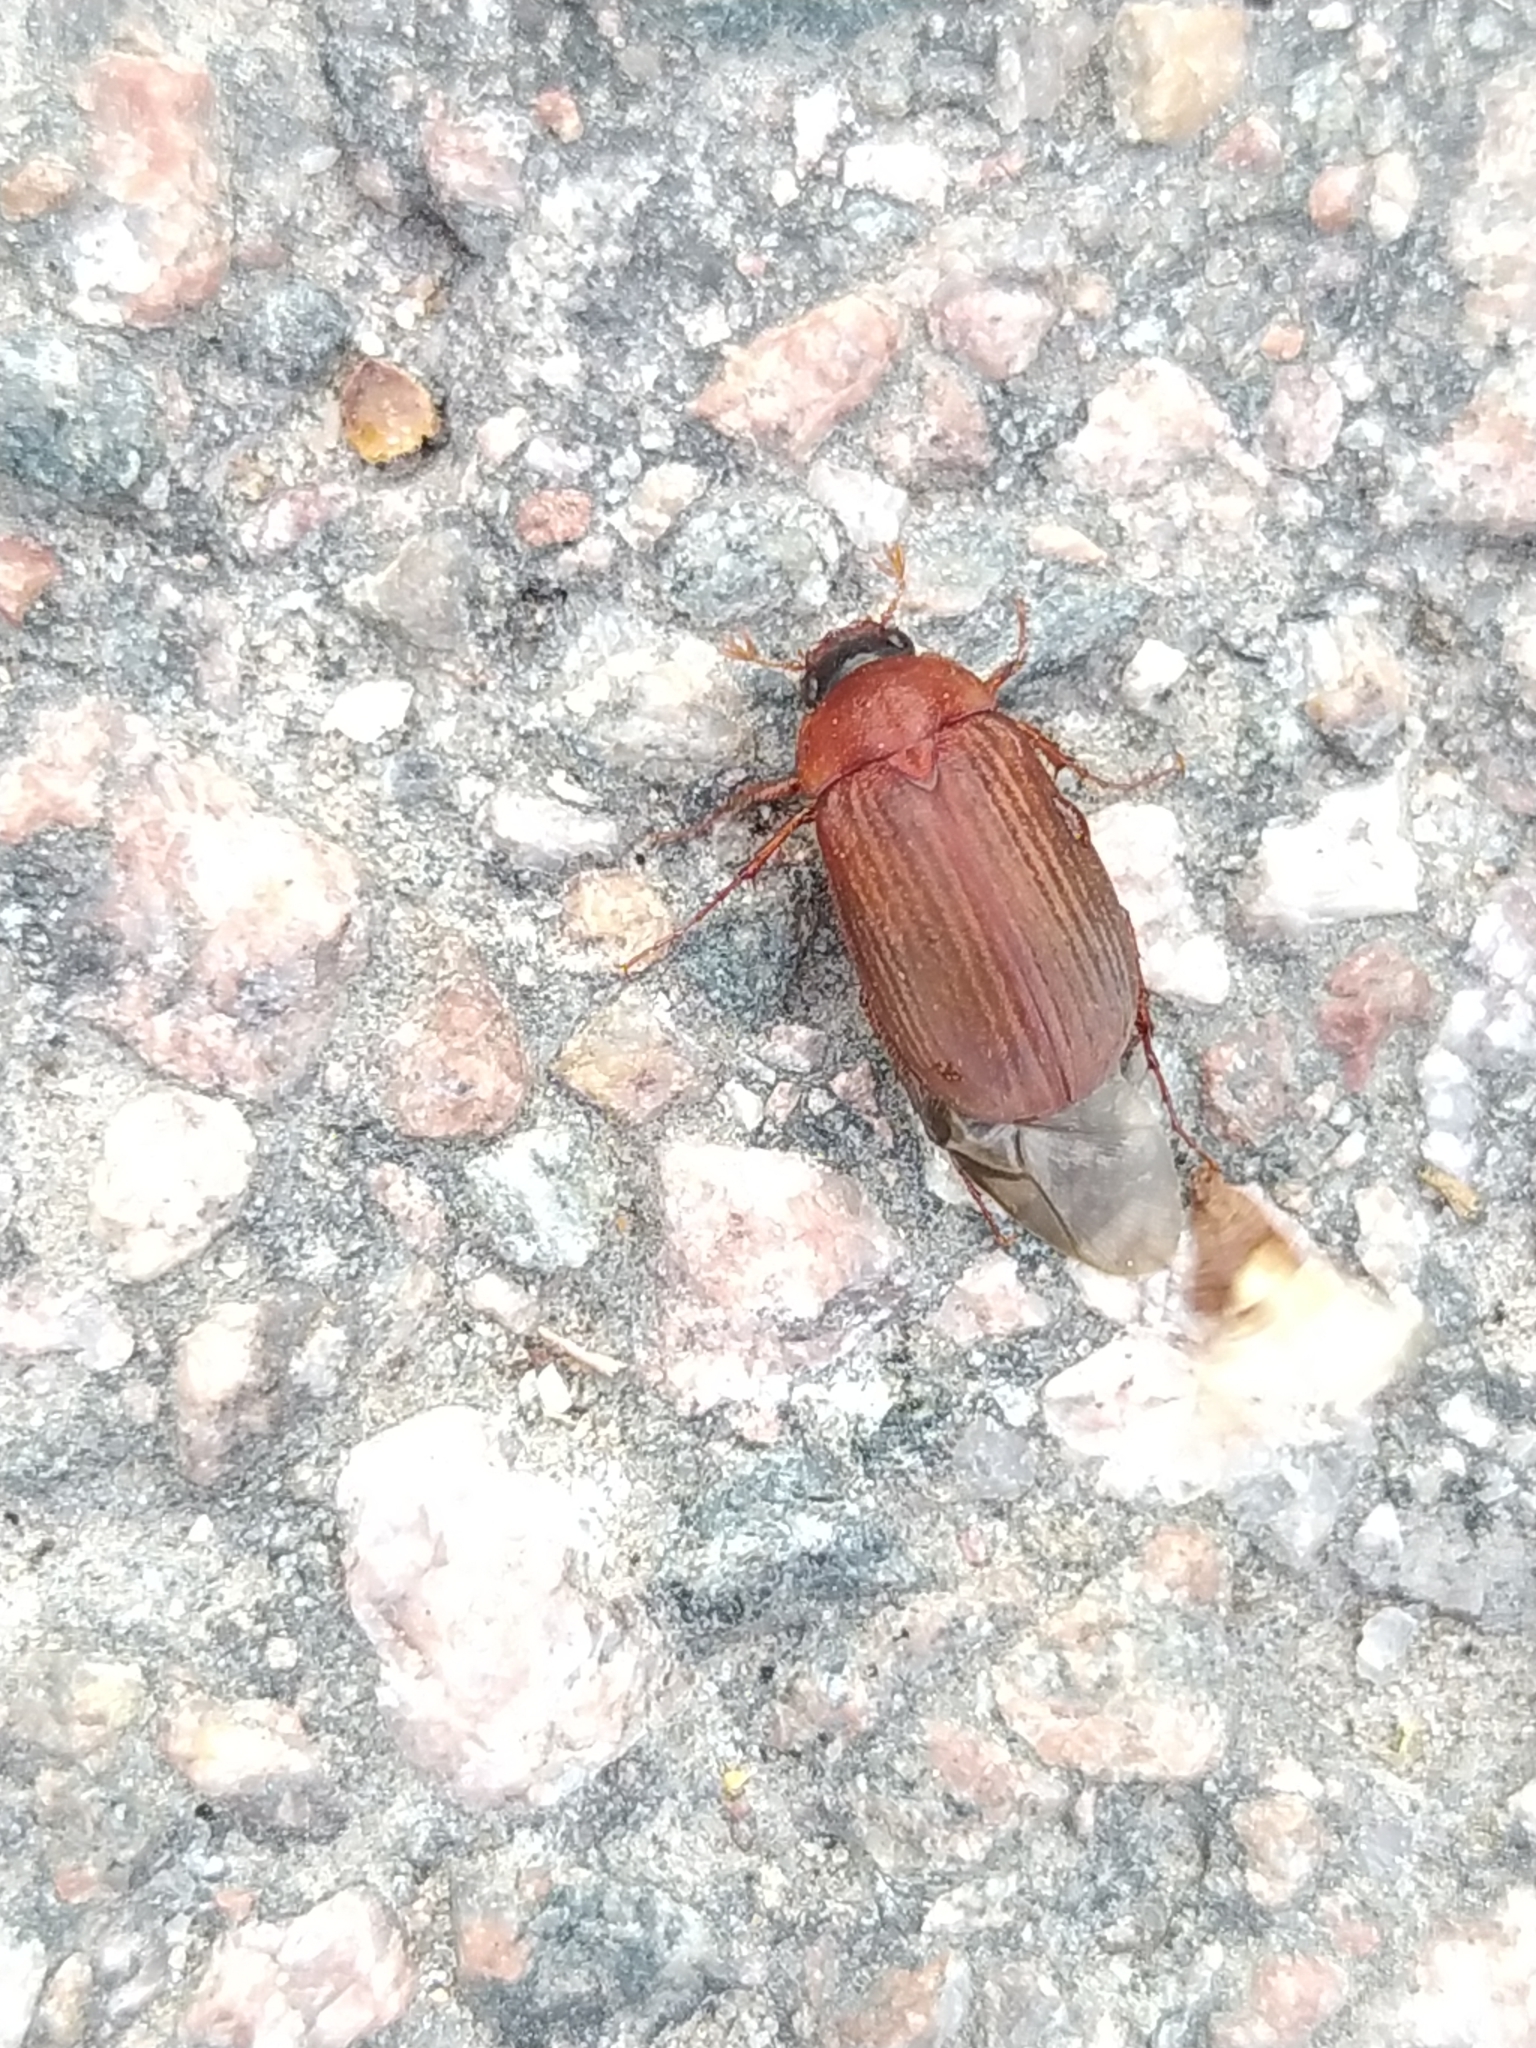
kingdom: Animalia
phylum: Arthropoda
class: Insecta
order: Coleoptera
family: Scarabaeidae
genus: Serica
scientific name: Serica brunnea
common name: Brown chafer
